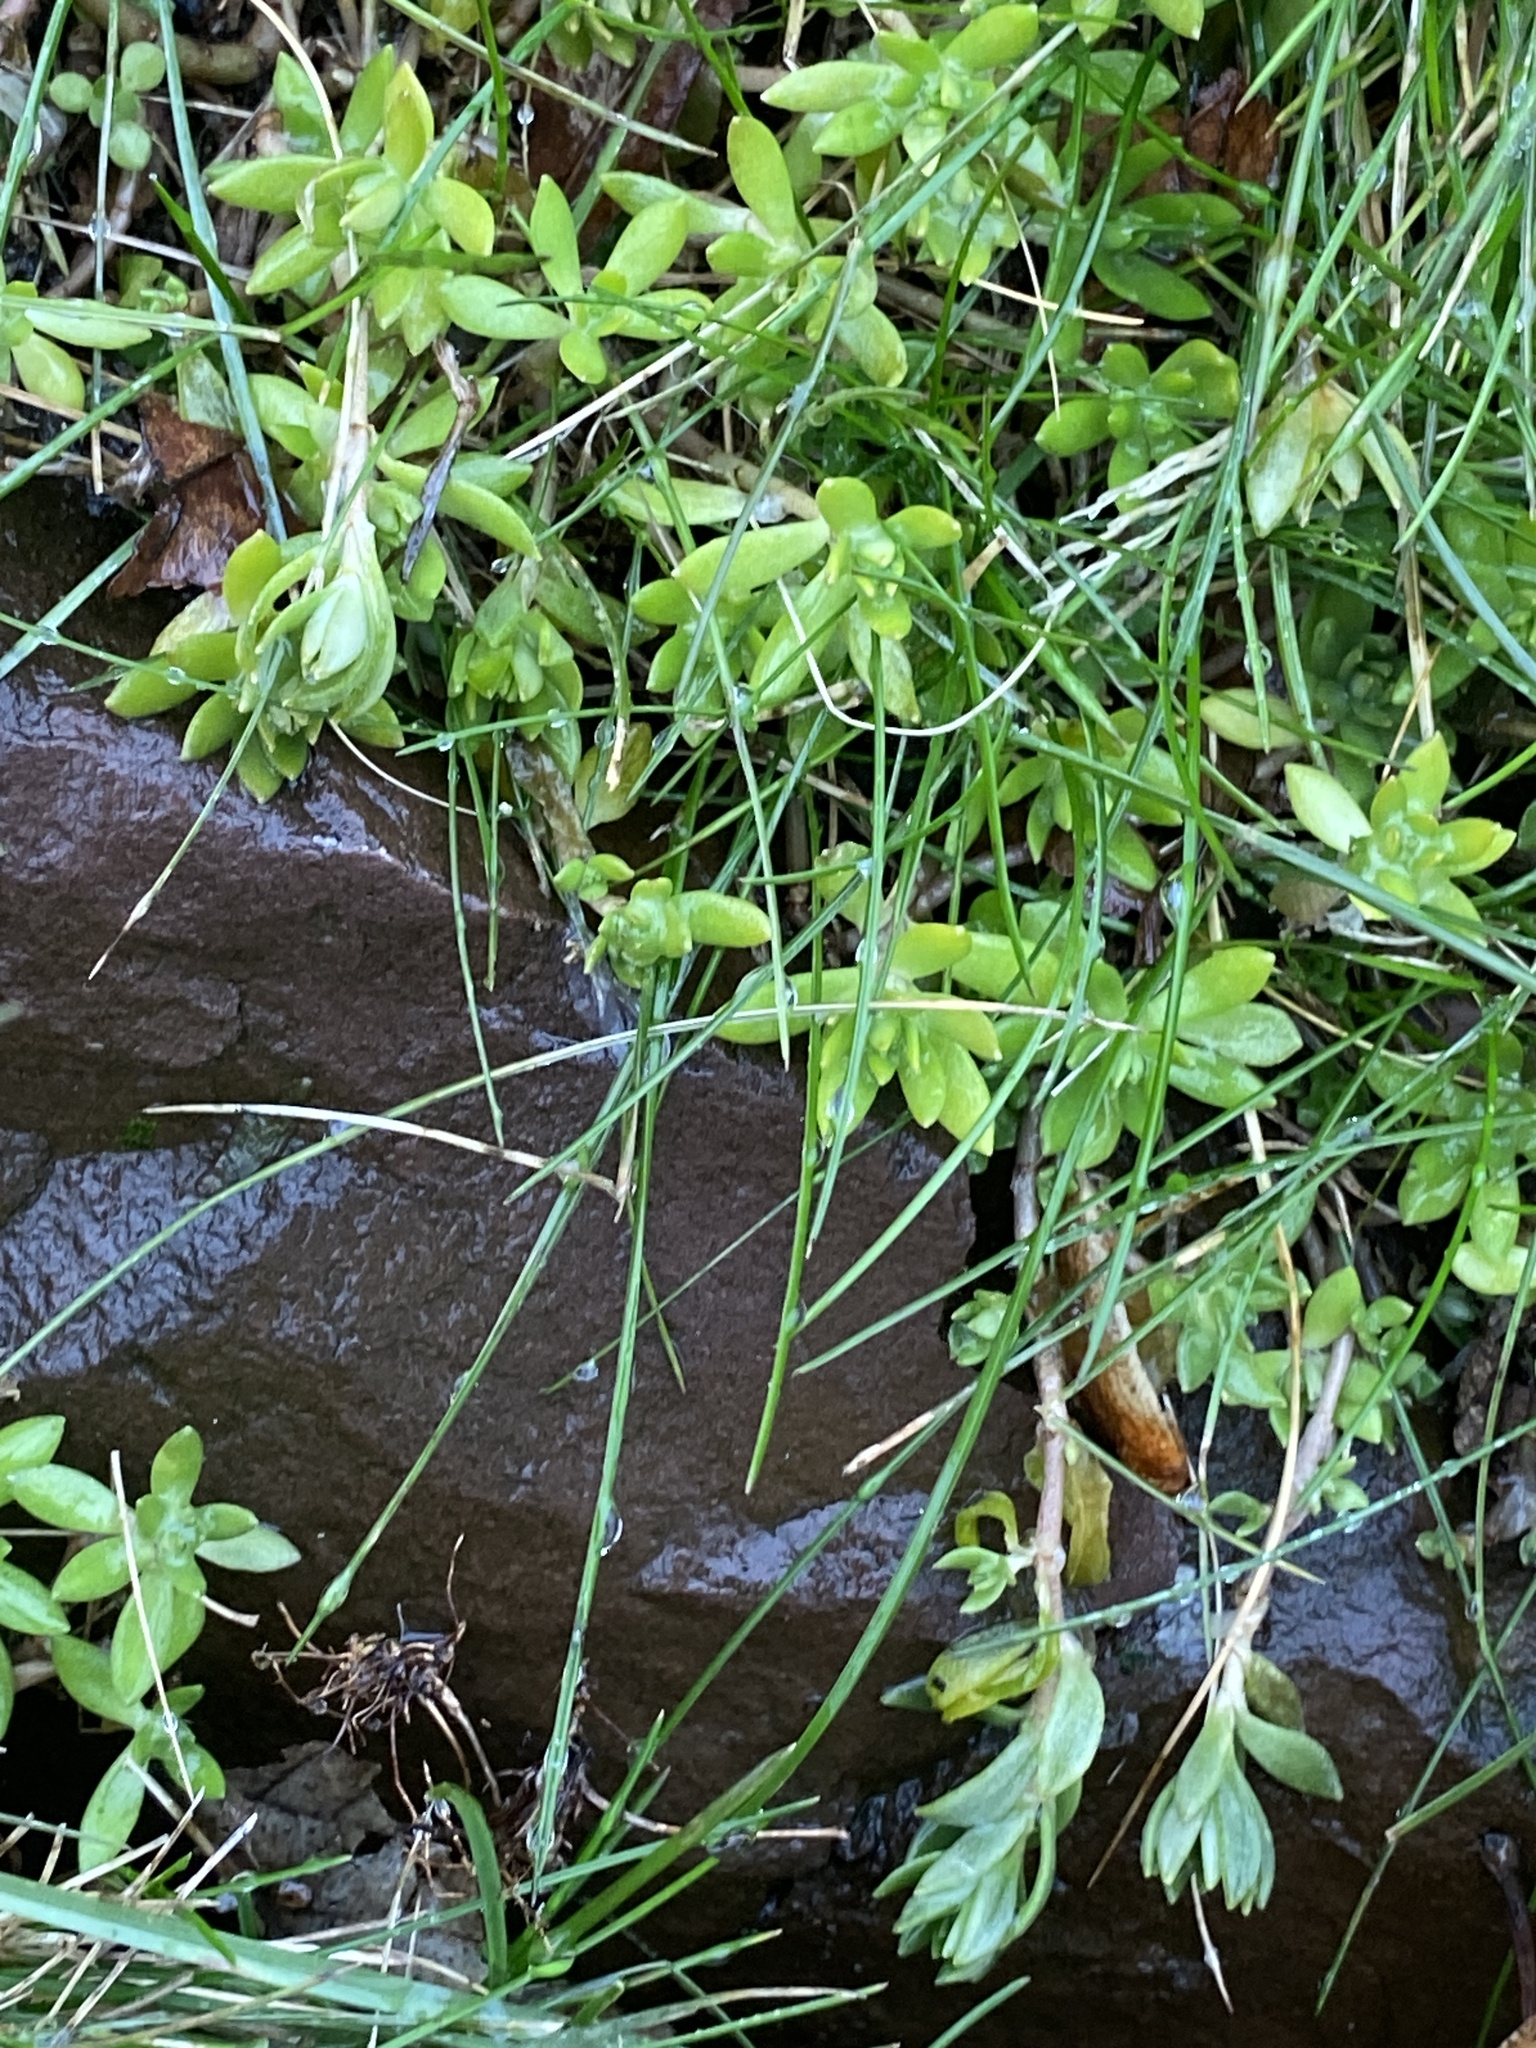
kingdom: Plantae
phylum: Tracheophyta
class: Magnoliopsida
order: Saxifragales
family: Crassulaceae
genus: Sedum
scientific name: Sedum sarmentosum
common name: Stringy stonecrop
